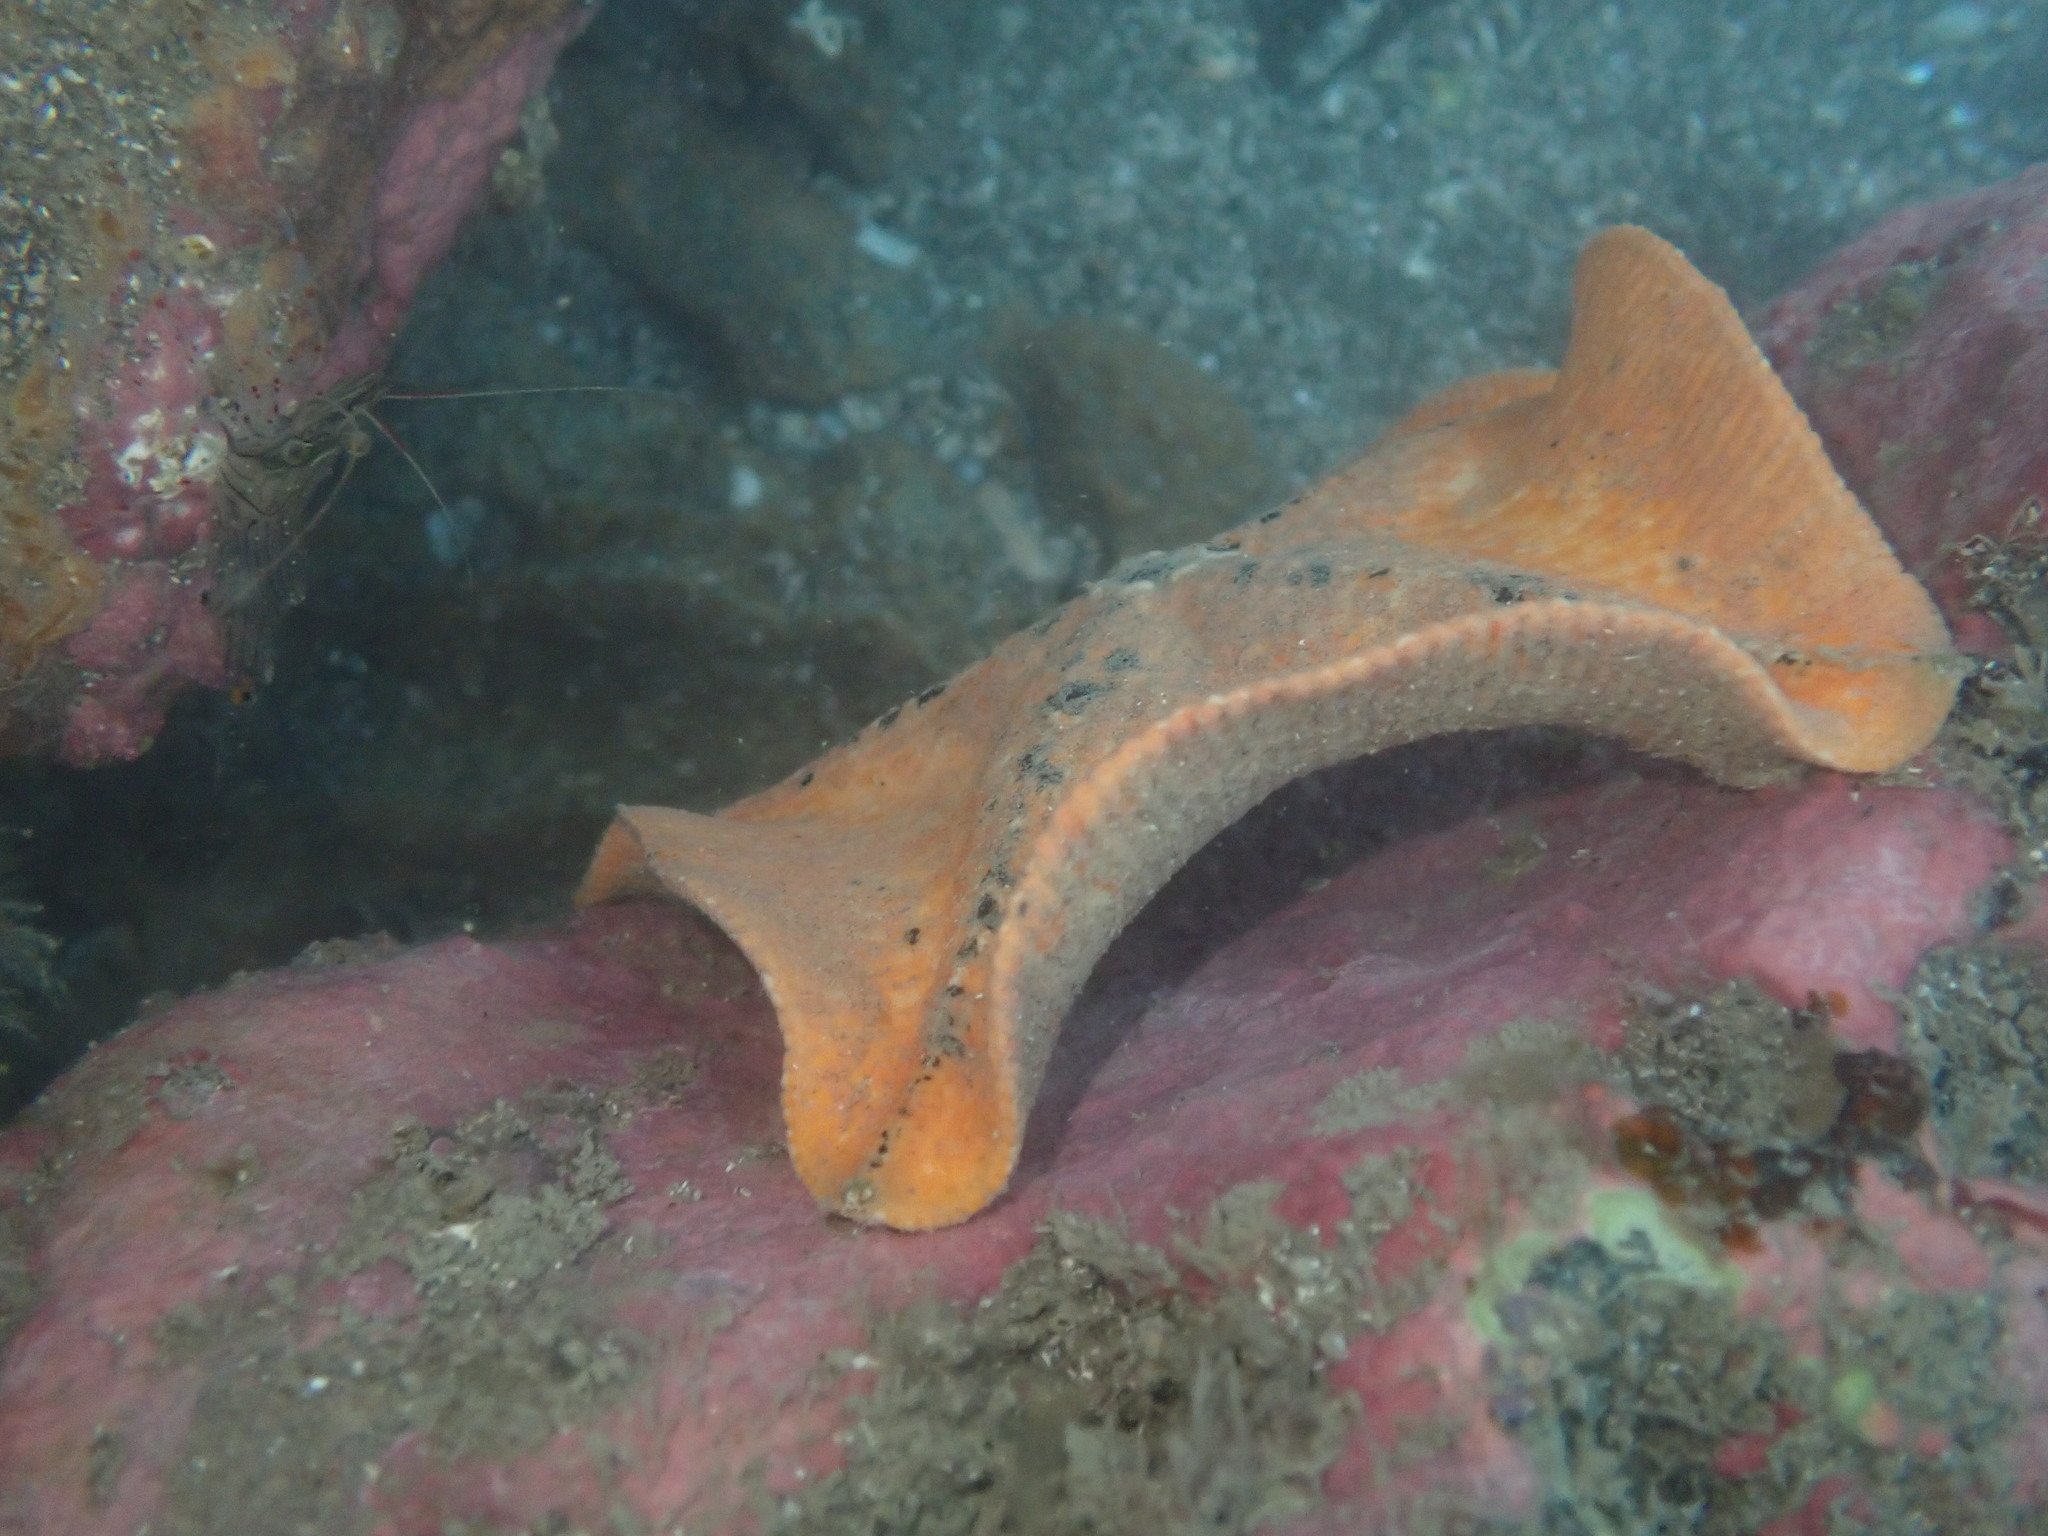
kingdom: Animalia
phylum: Echinodermata
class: Asteroidea
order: Valvatida
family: Asterinidae
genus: Stegnaster
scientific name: Stegnaster inflatus
